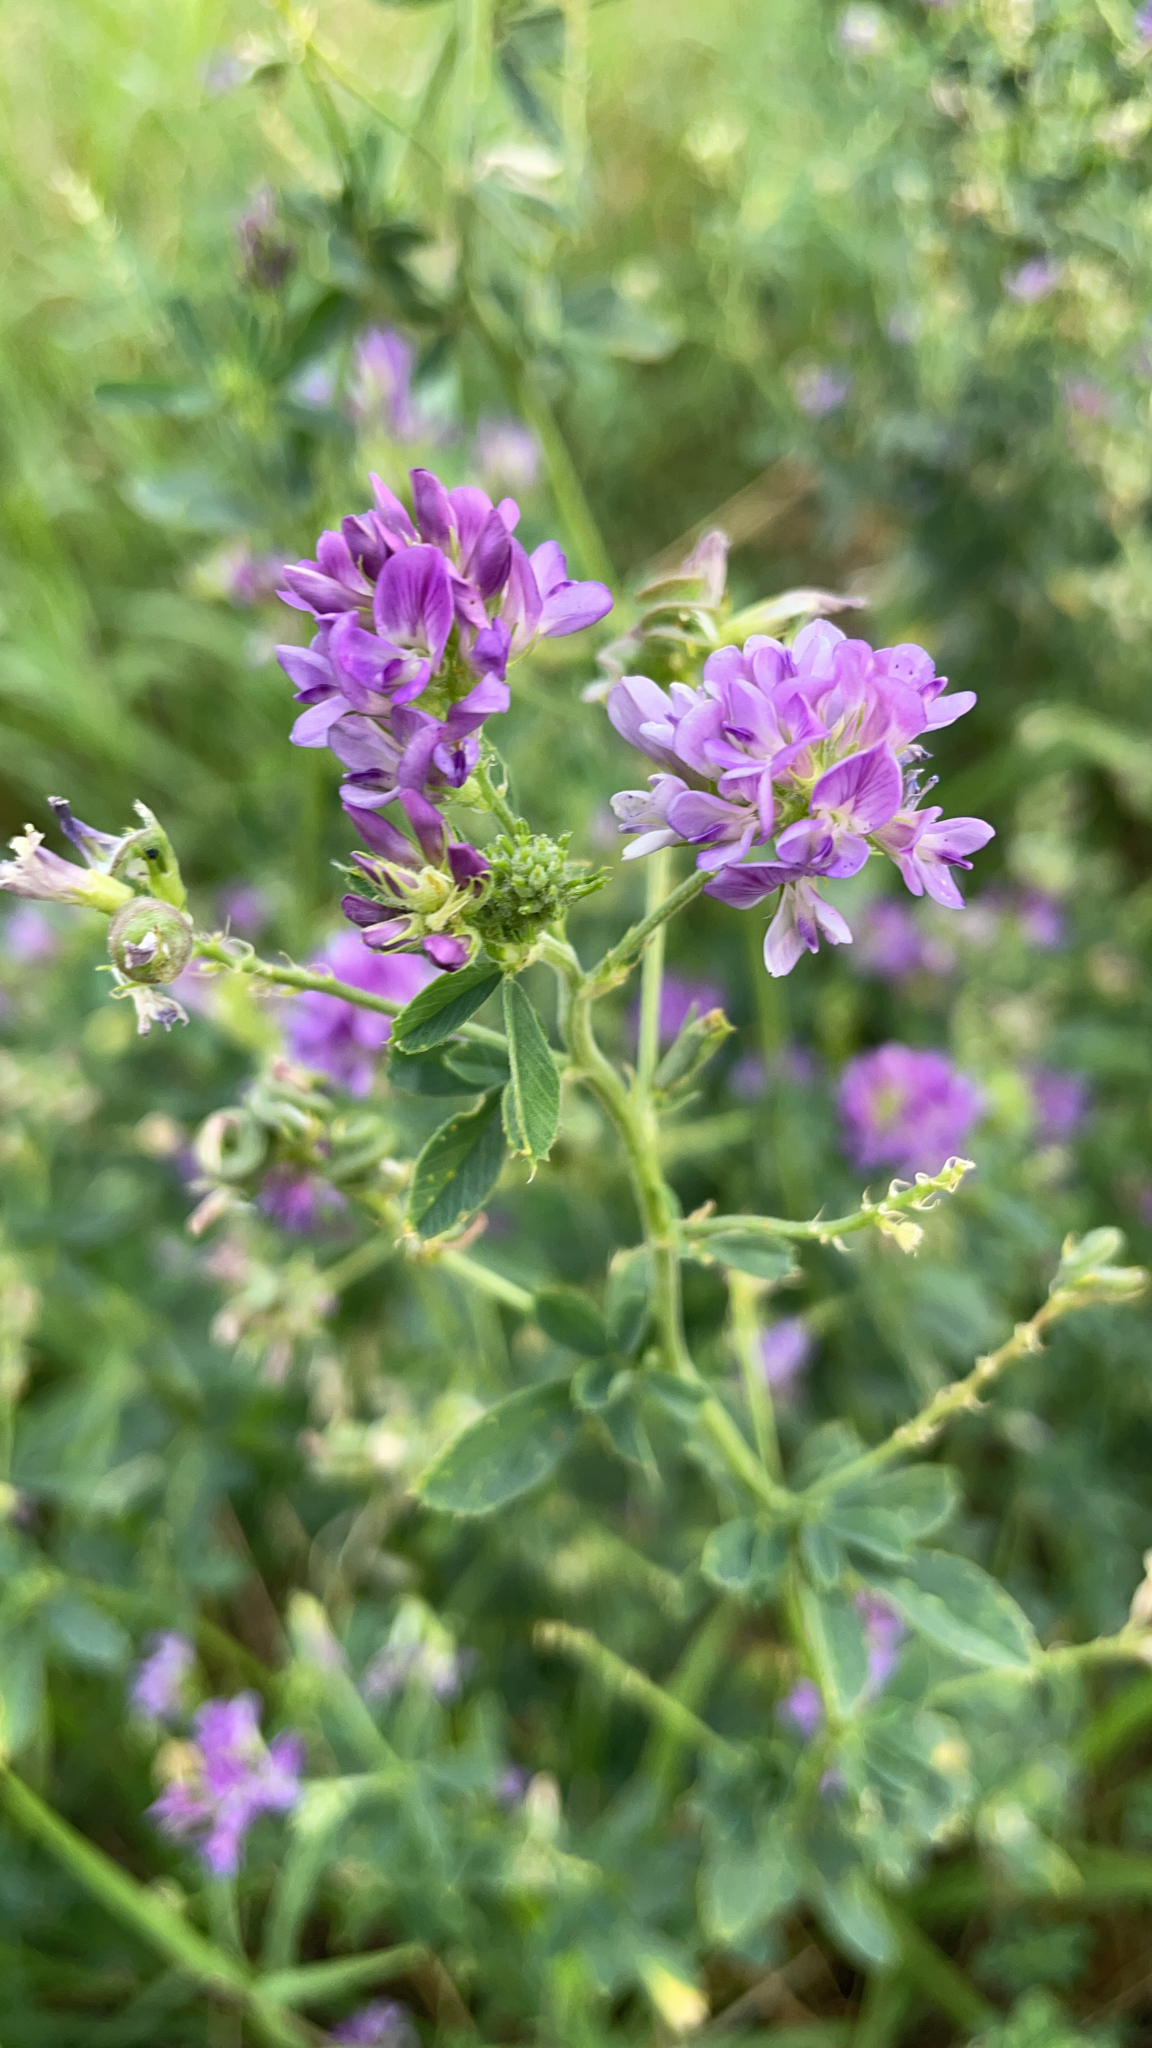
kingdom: Plantae
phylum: Tracheophyta
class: Magnoliopsida
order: Fabales
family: Fabaceae
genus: Medicago
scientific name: Medicago sativa
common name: Alfalfa
